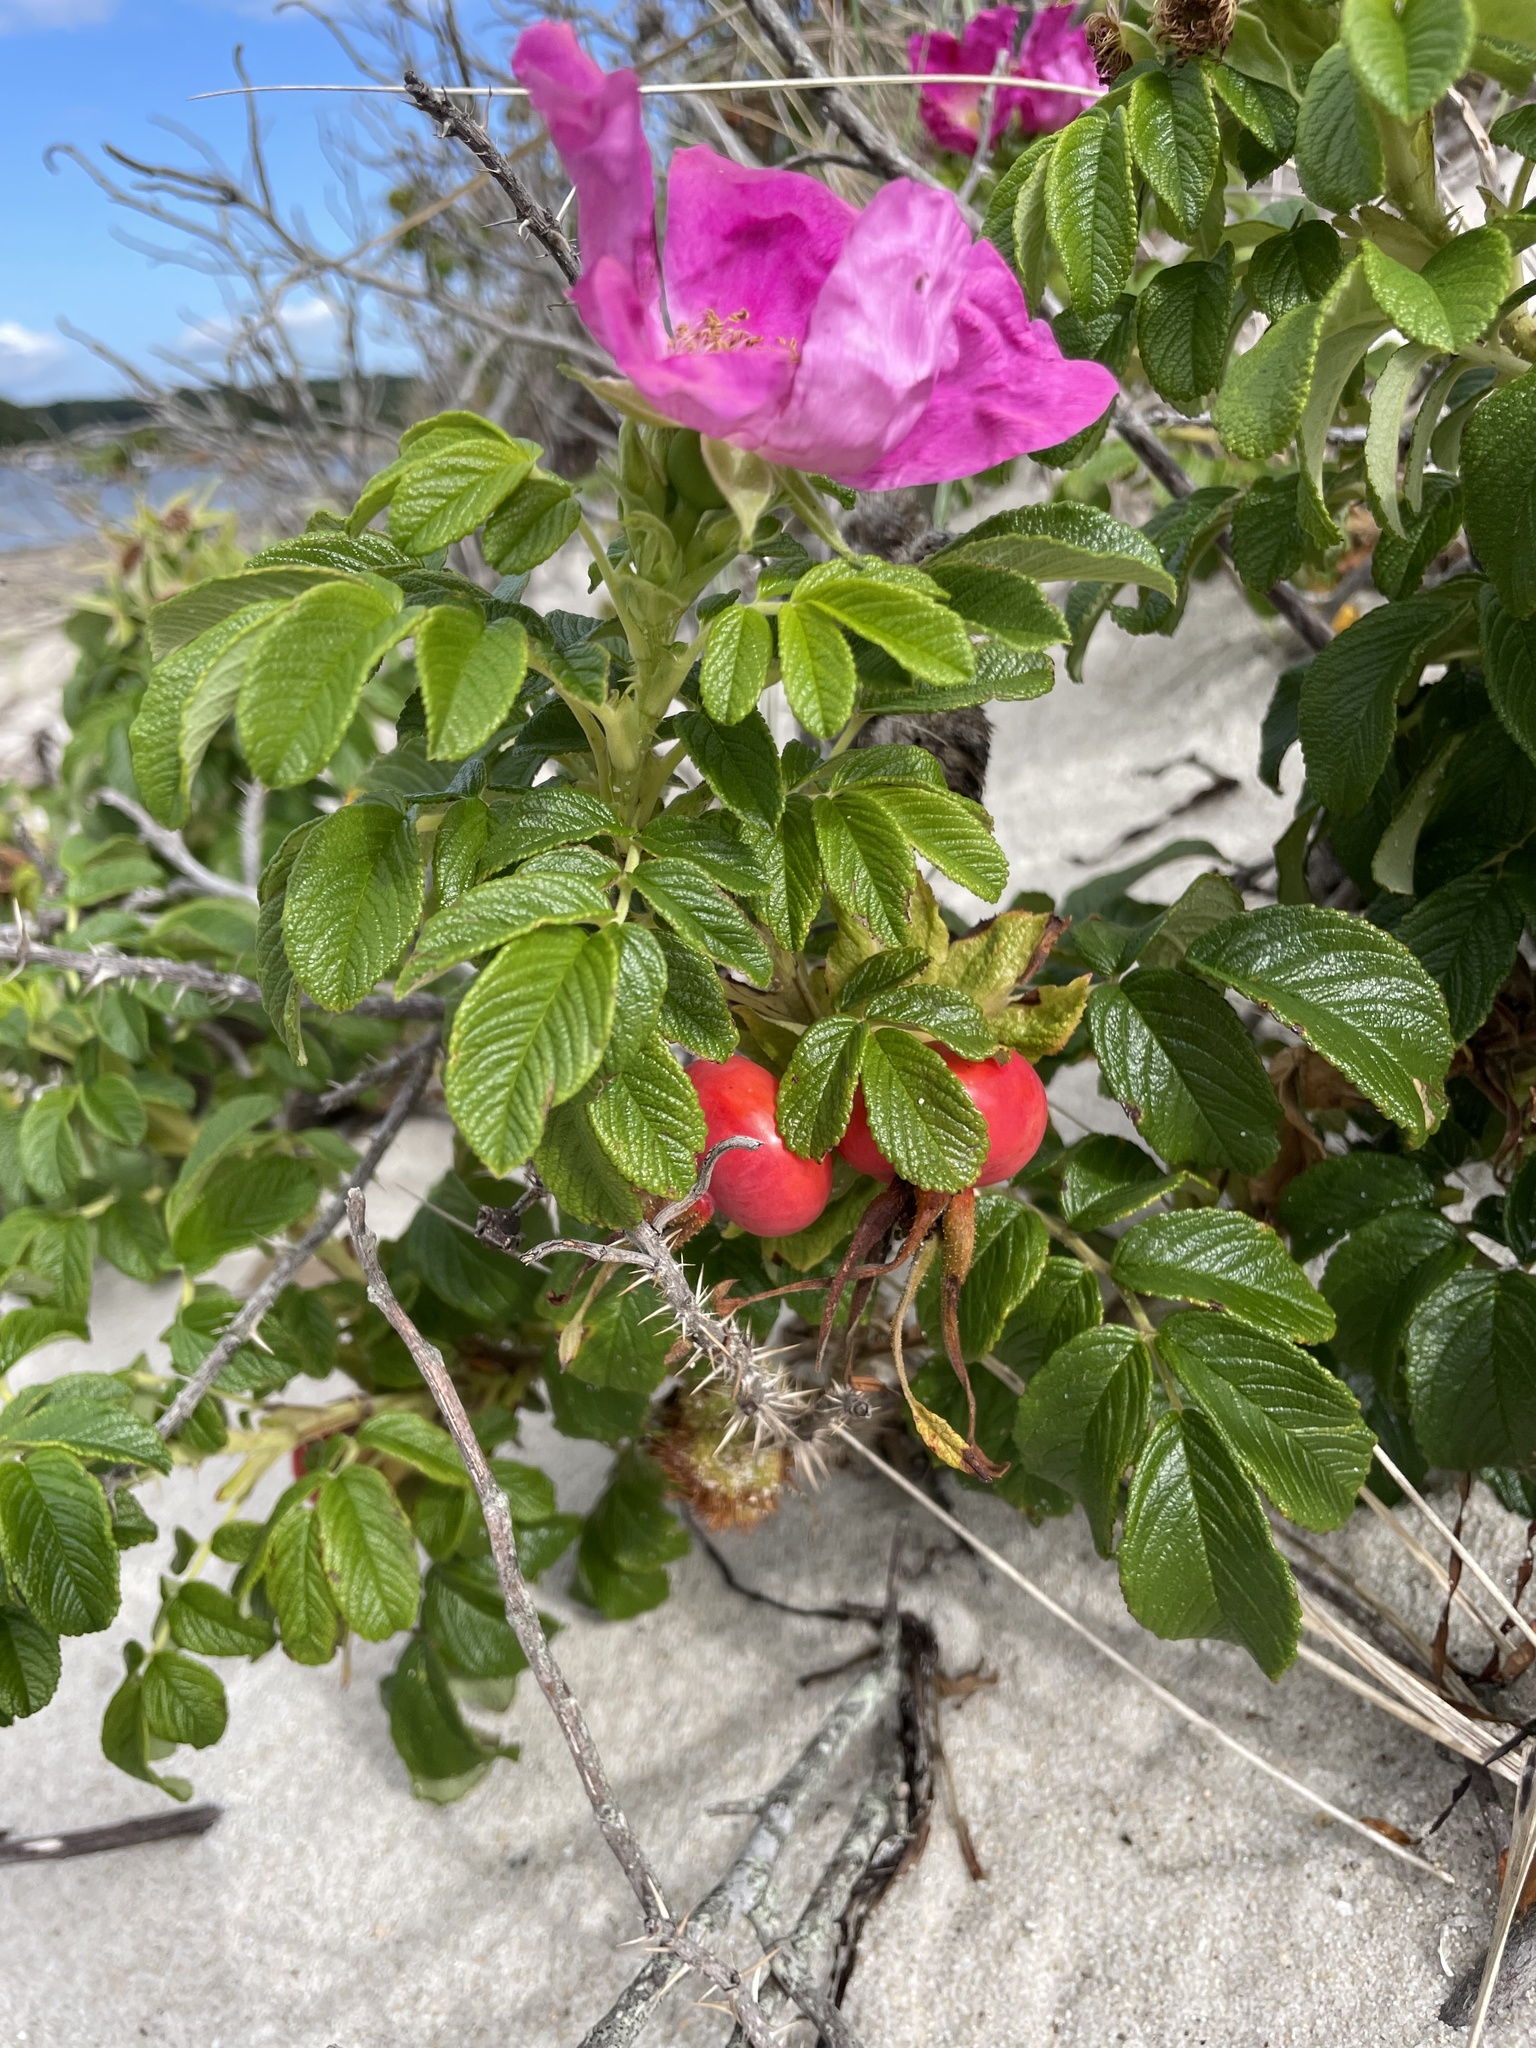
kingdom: Plantae
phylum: Tracheophyta
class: Magnoliopsida
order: Rosales
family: Rosaceae
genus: Rosa
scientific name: Rosa rugosa
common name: Japanese rose
